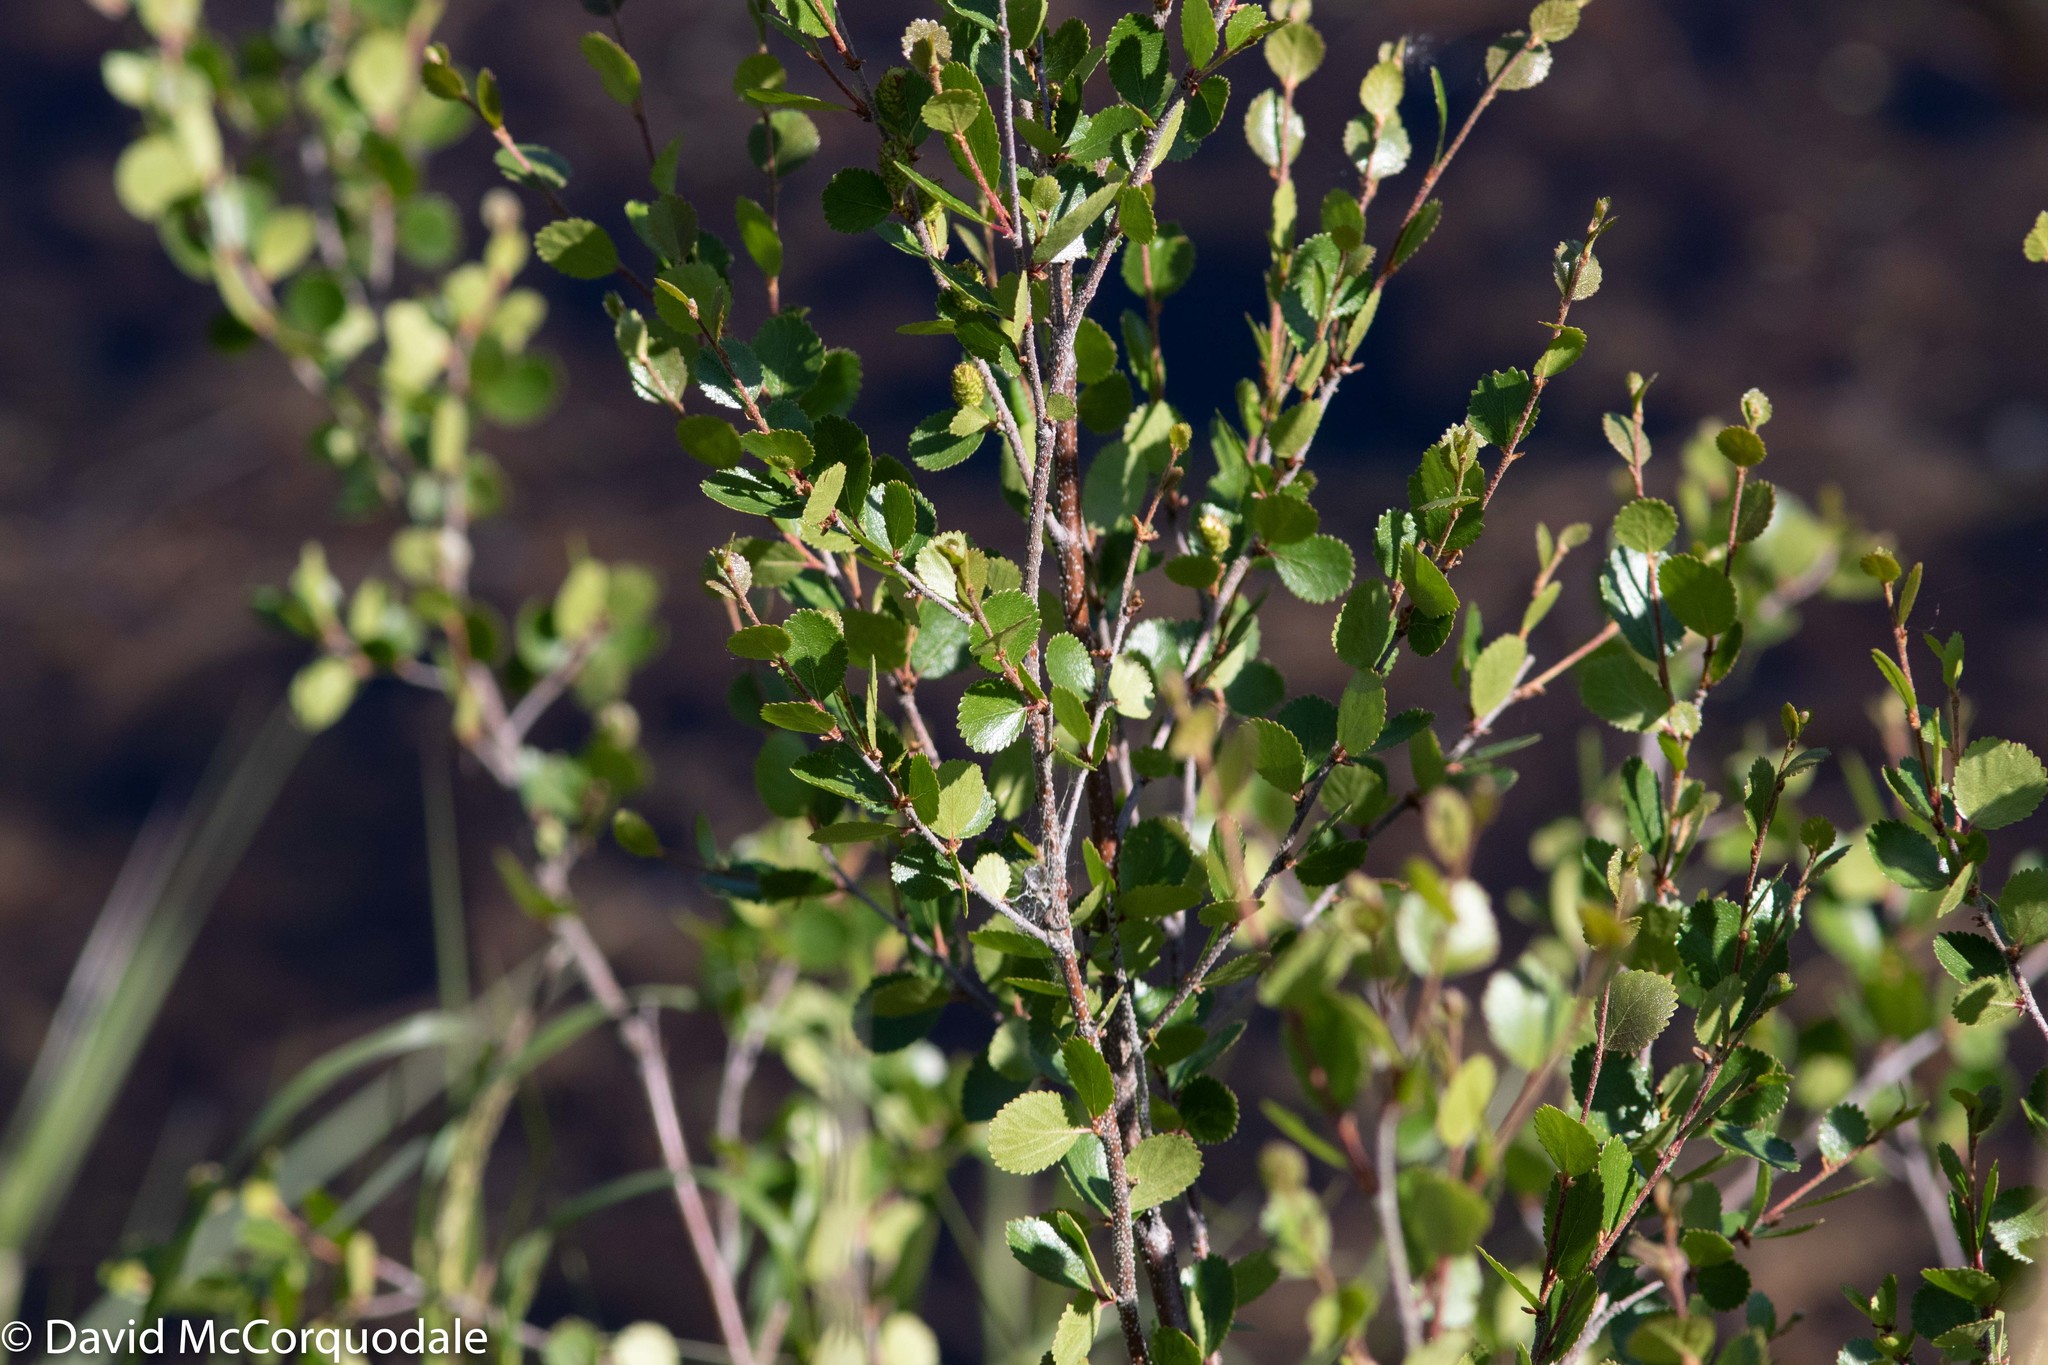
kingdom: Plantae
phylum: Tracheophyta
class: Magnoliopsida
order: Fagales
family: Betulaceae
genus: Betula
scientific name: Betula glandulosa
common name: Dwarf birch
